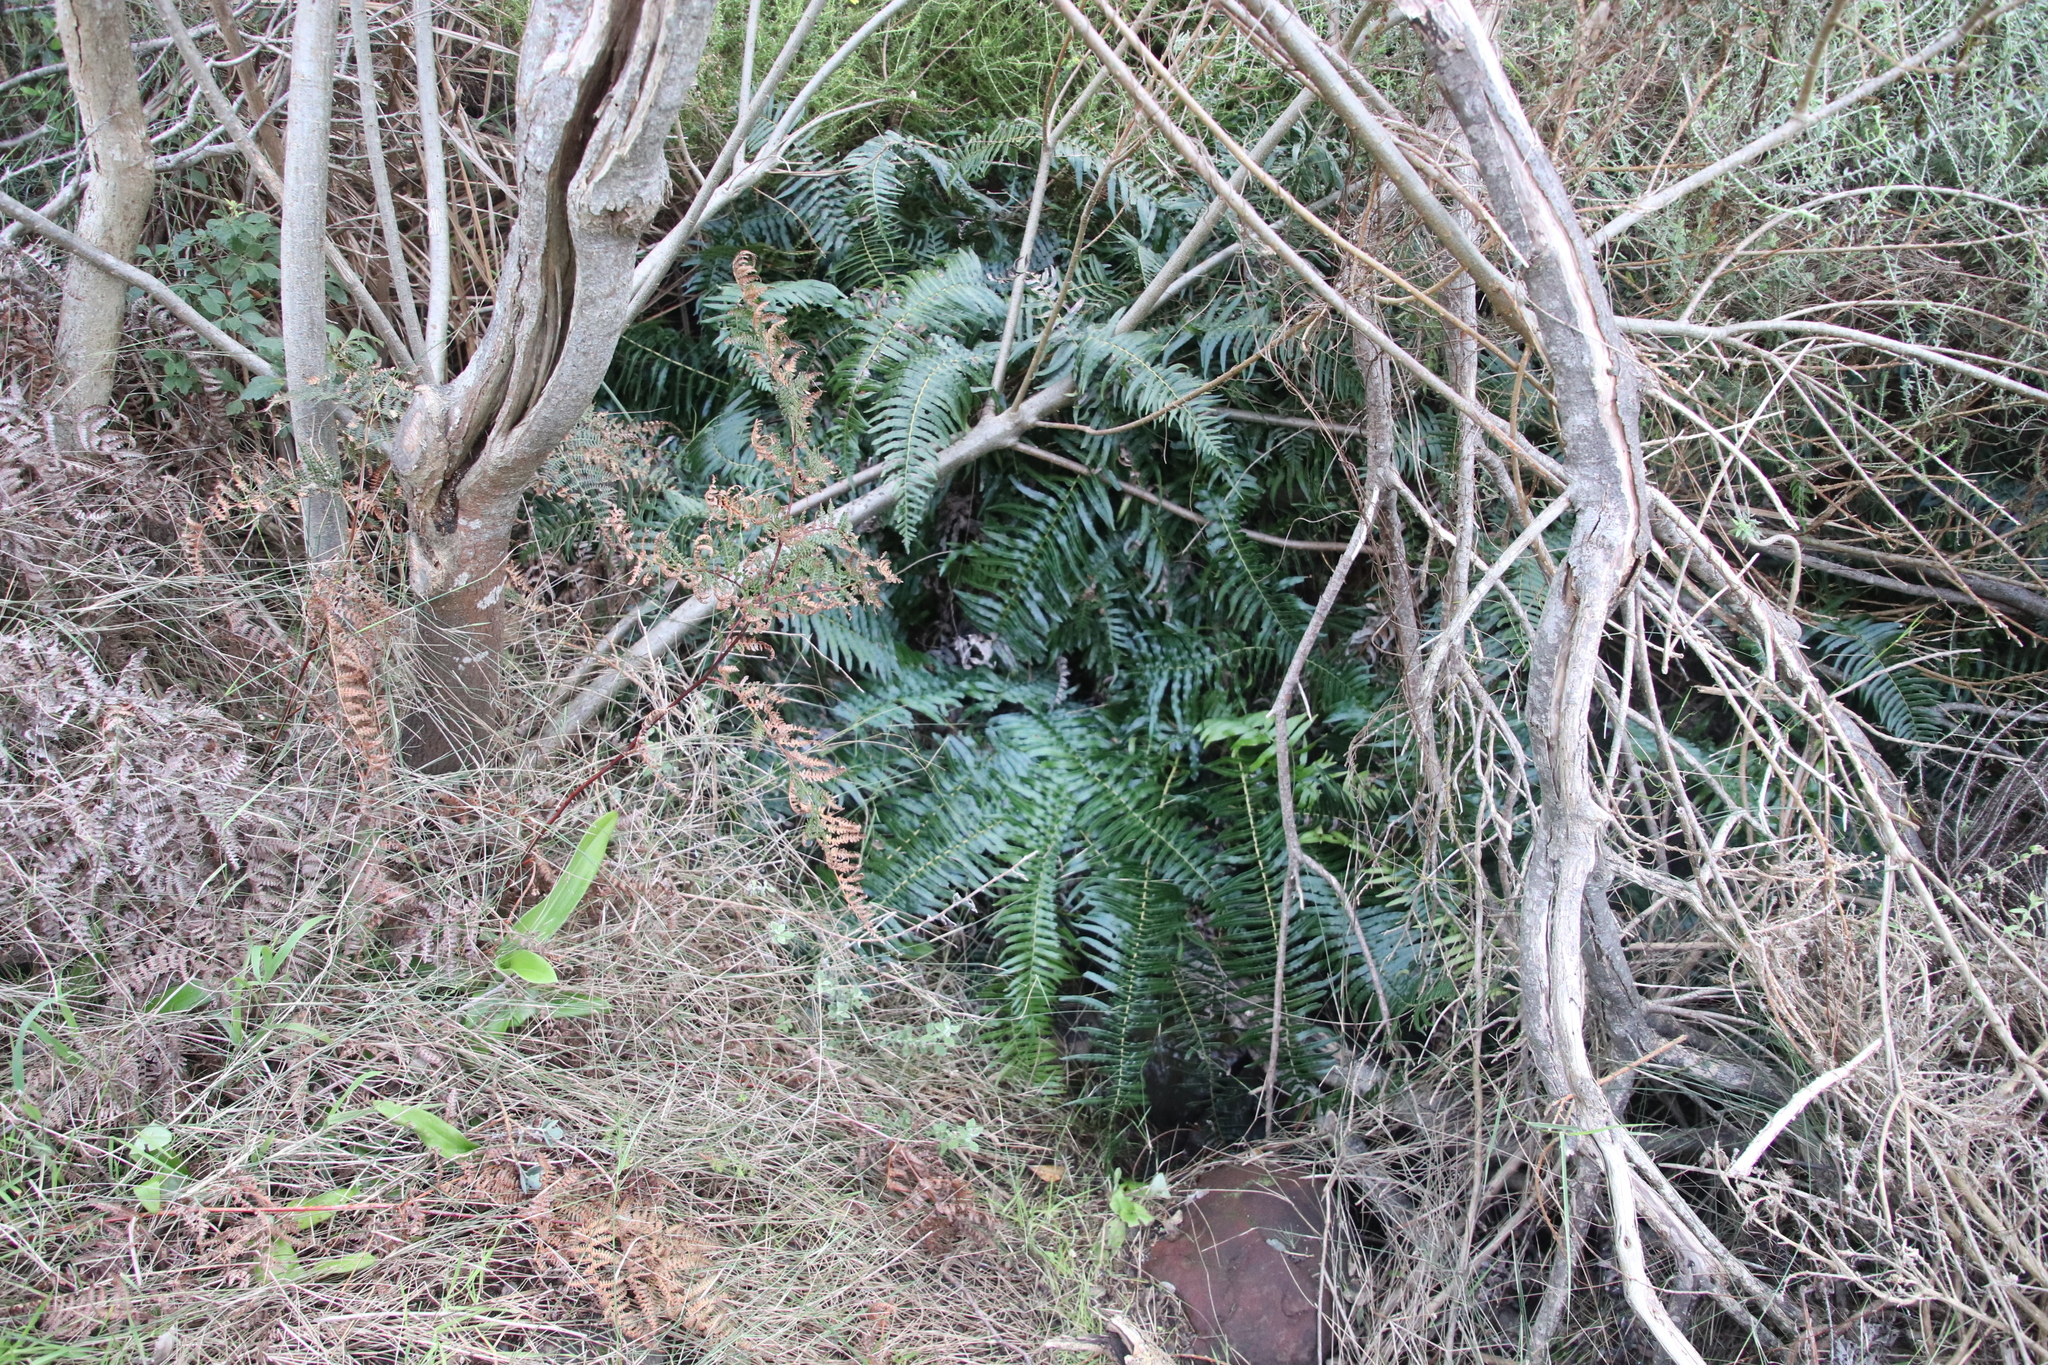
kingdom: Plantae
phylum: Tracheophyta
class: Polypodiopsida
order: Polypodiales
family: Blechnaceae
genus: Blechnum
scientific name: Blechnum punctulatum
